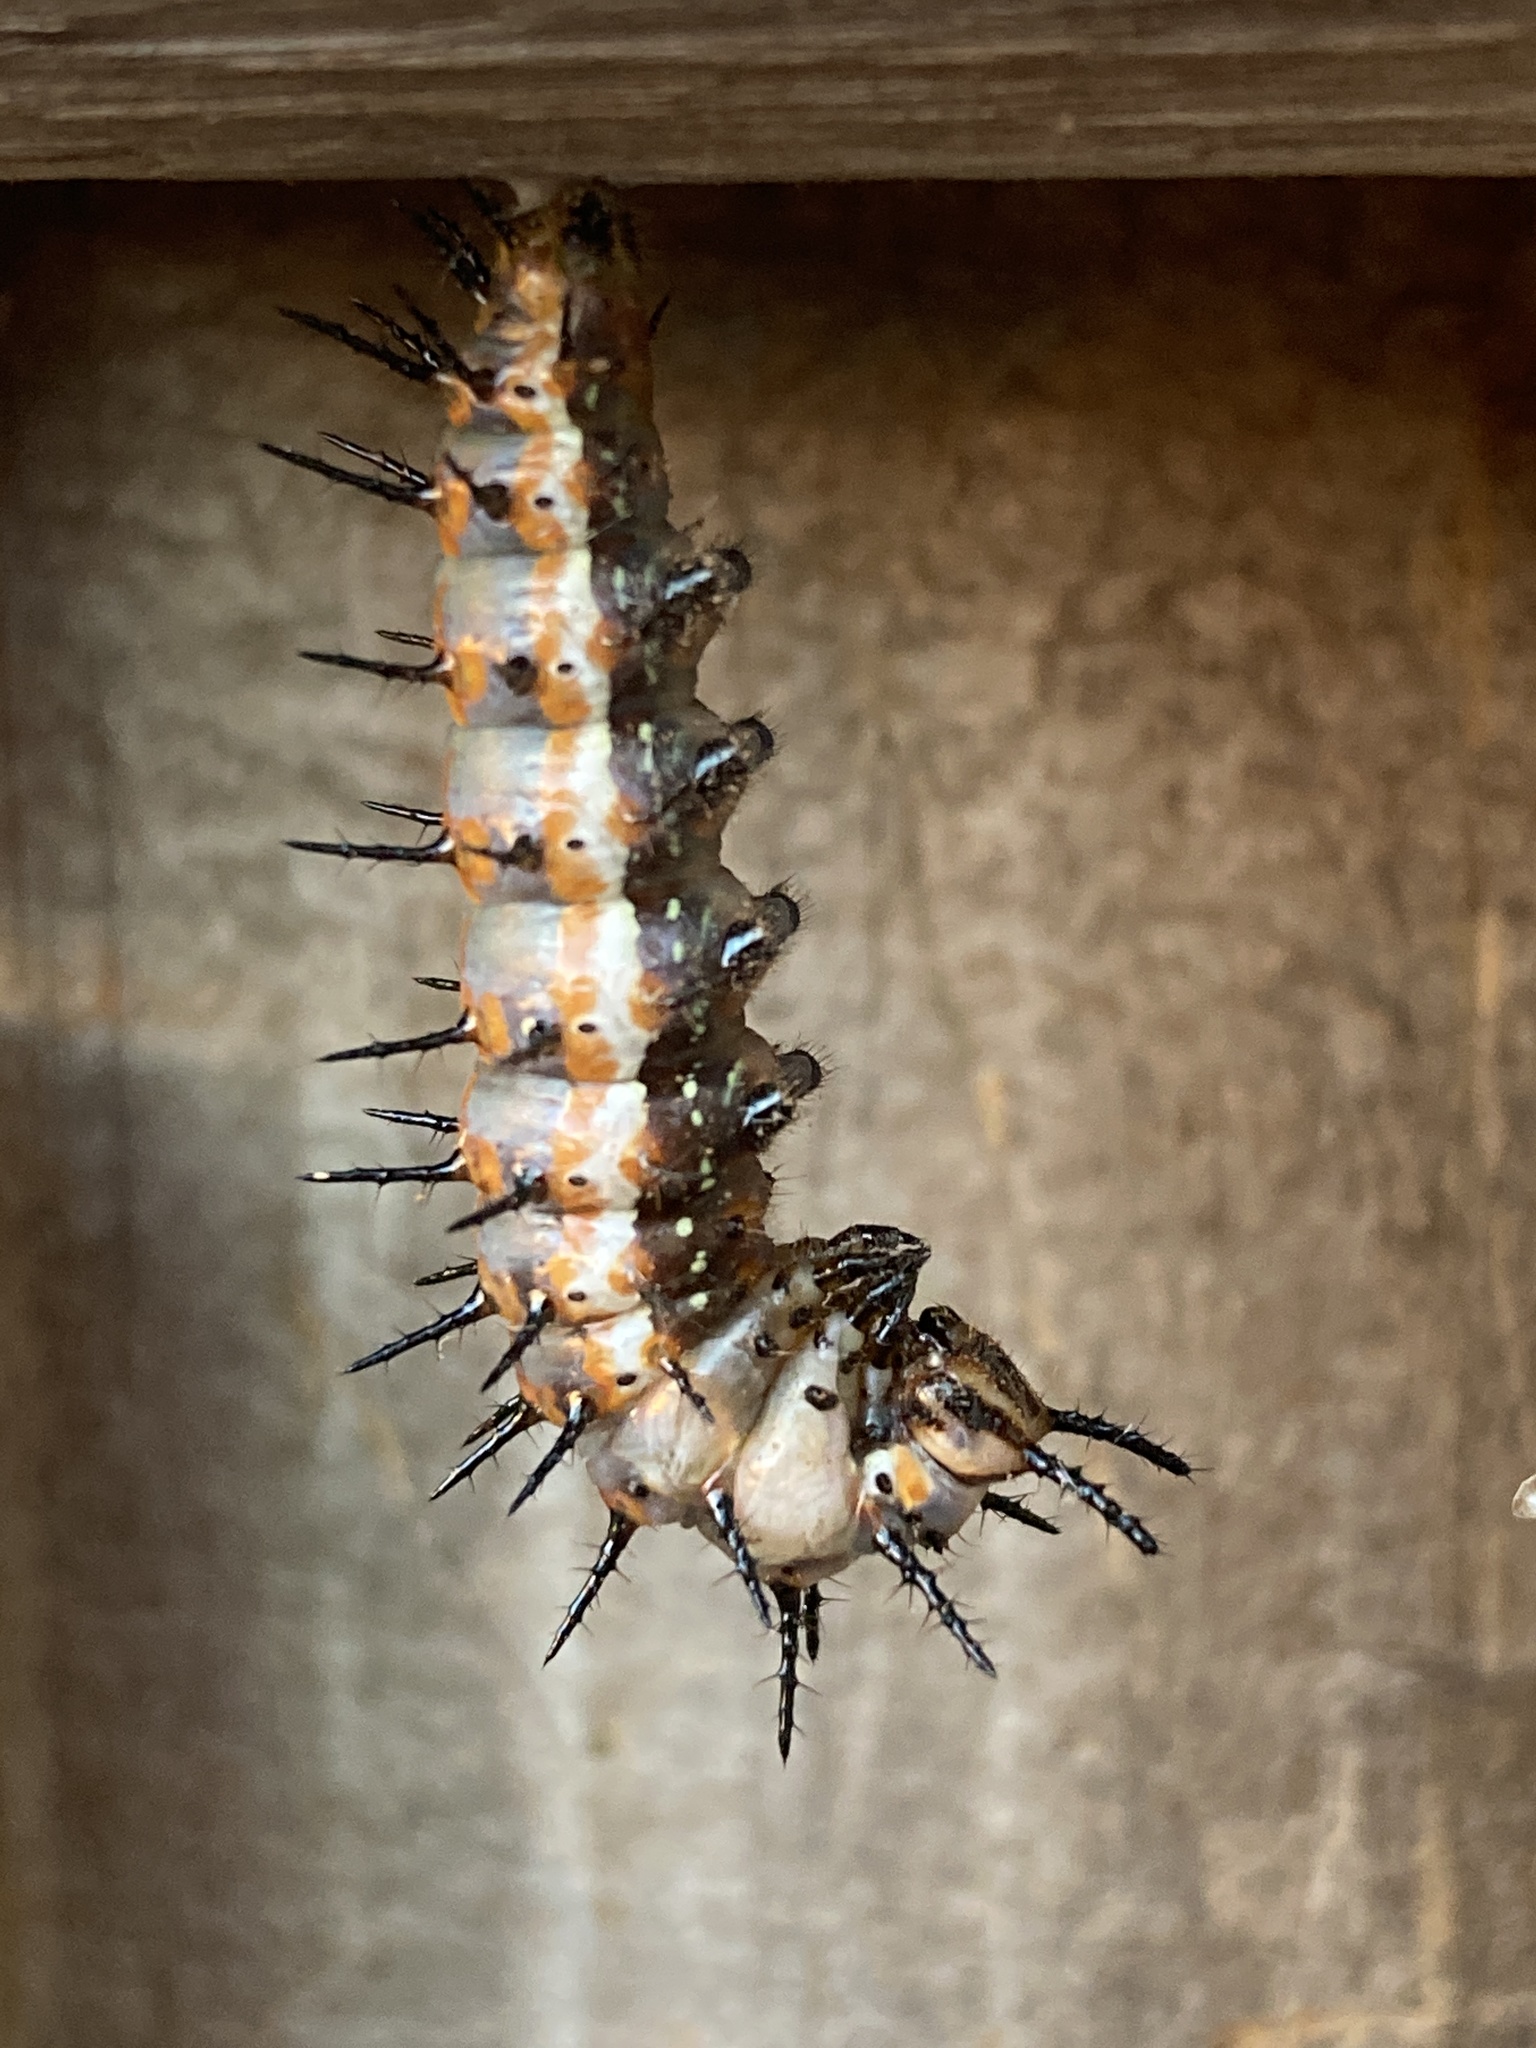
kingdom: Animalia
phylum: Arthropoda
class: Insecta
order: Lepidoptera
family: Nymphalidae
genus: Dione
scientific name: Dione vanillae
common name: Gulf fritillary
